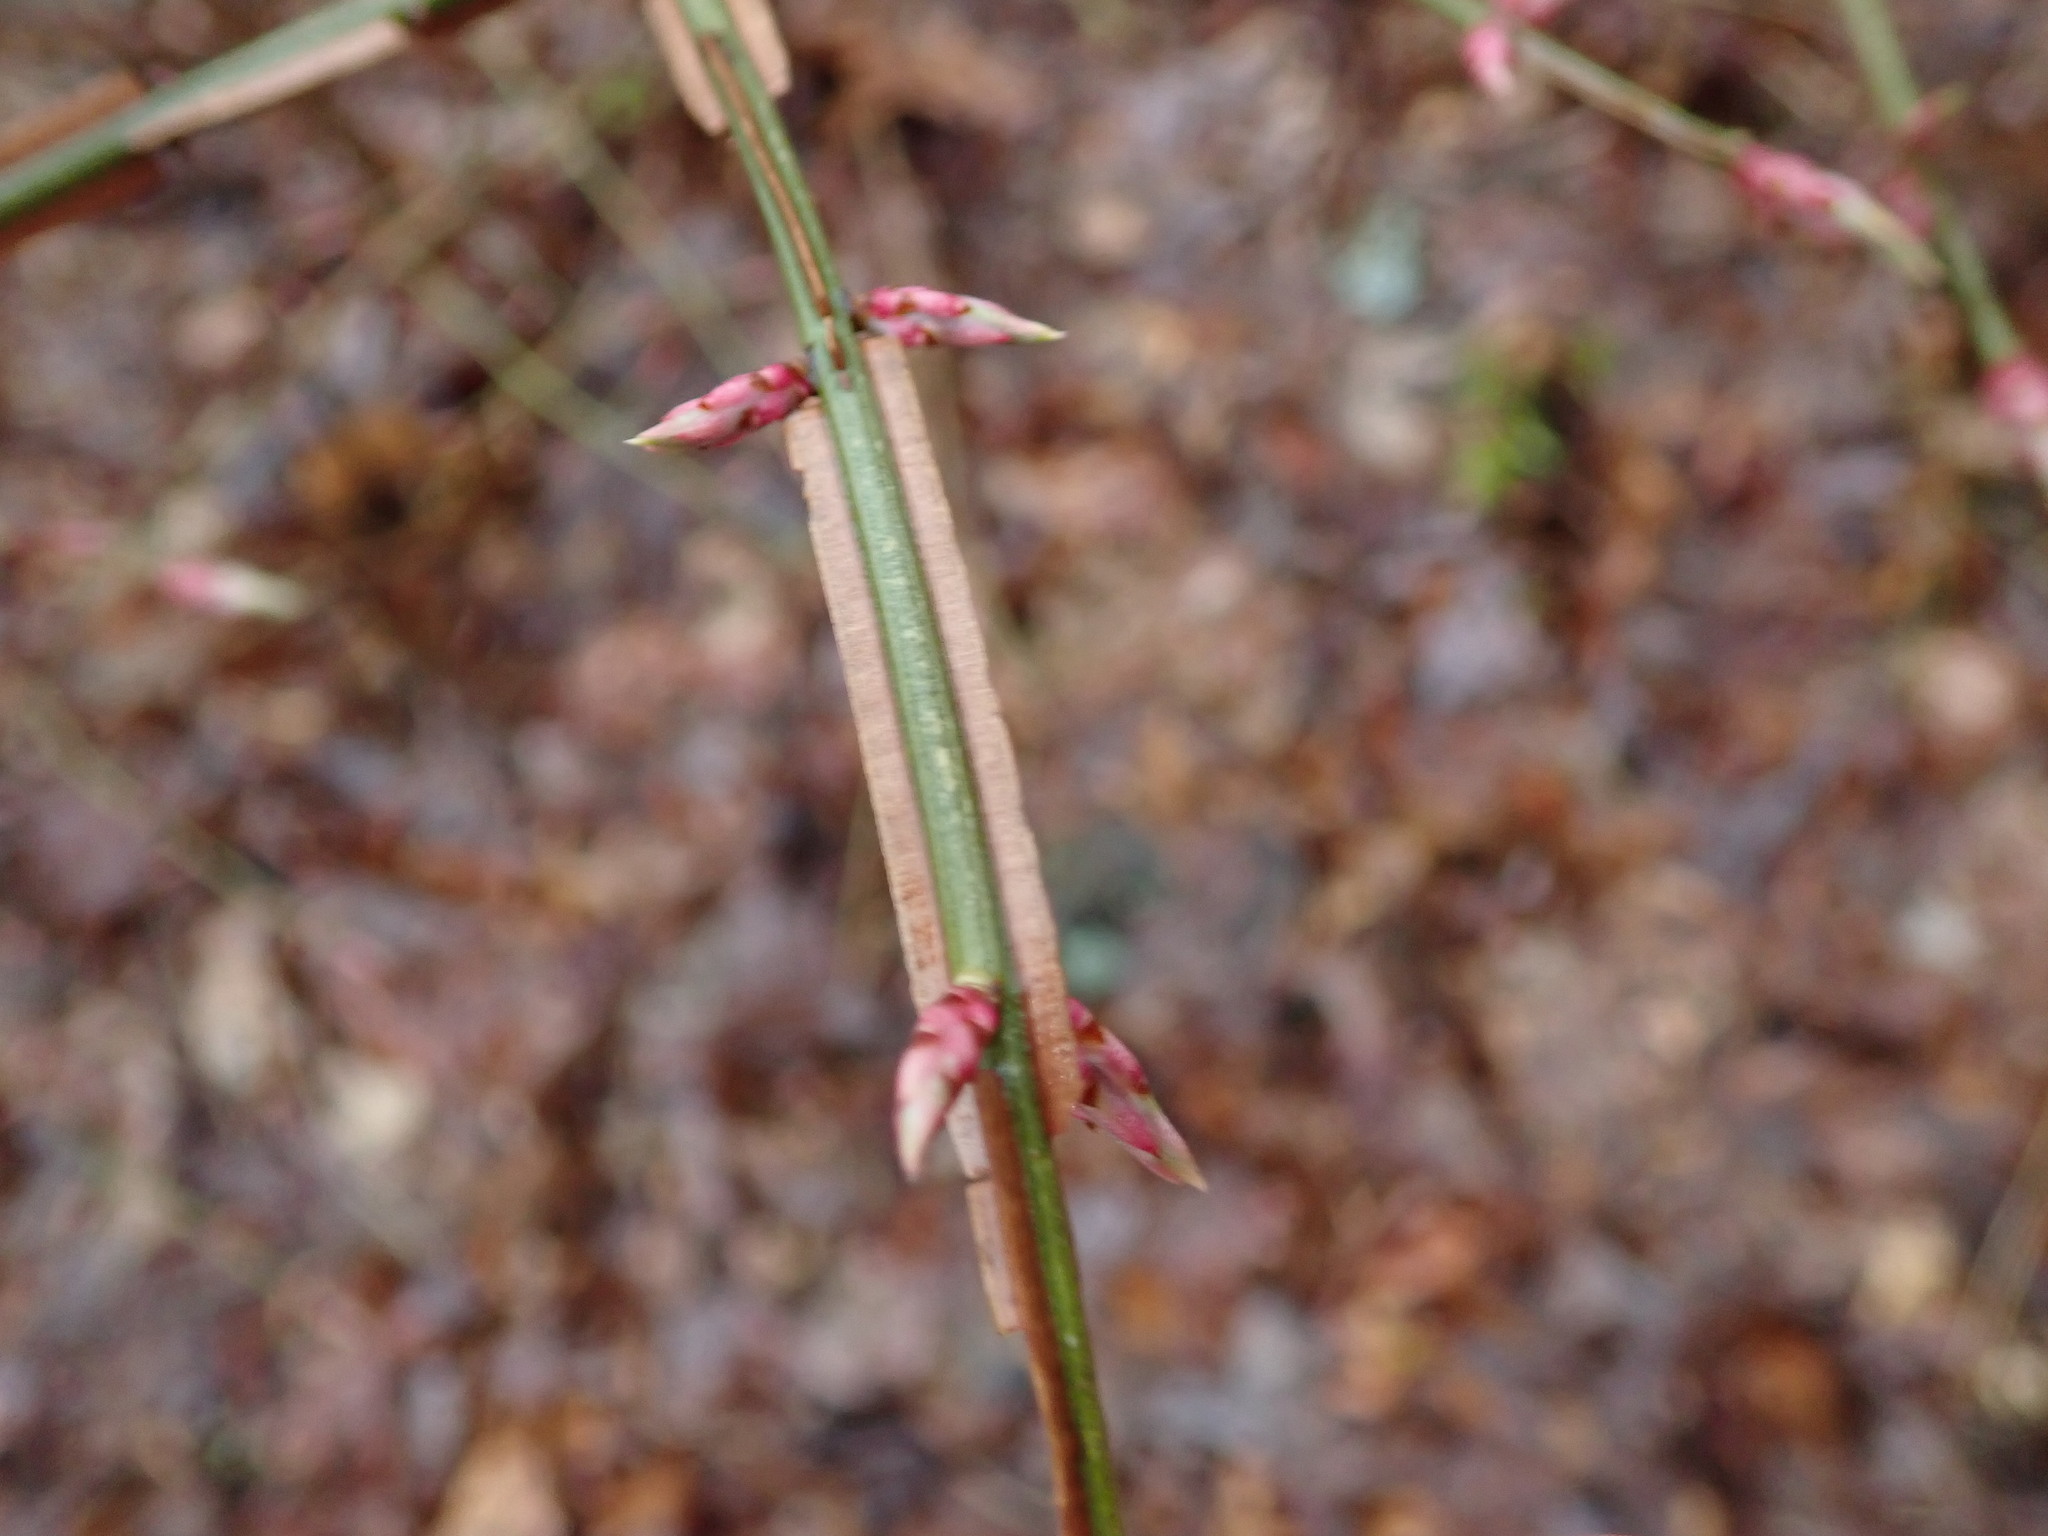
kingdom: Plantae
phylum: Tracheophyta
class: Magnoliopsida
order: Celastrales
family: Celastraceae
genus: Euonymus
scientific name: Euonymus alatus
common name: Winged euonymus
